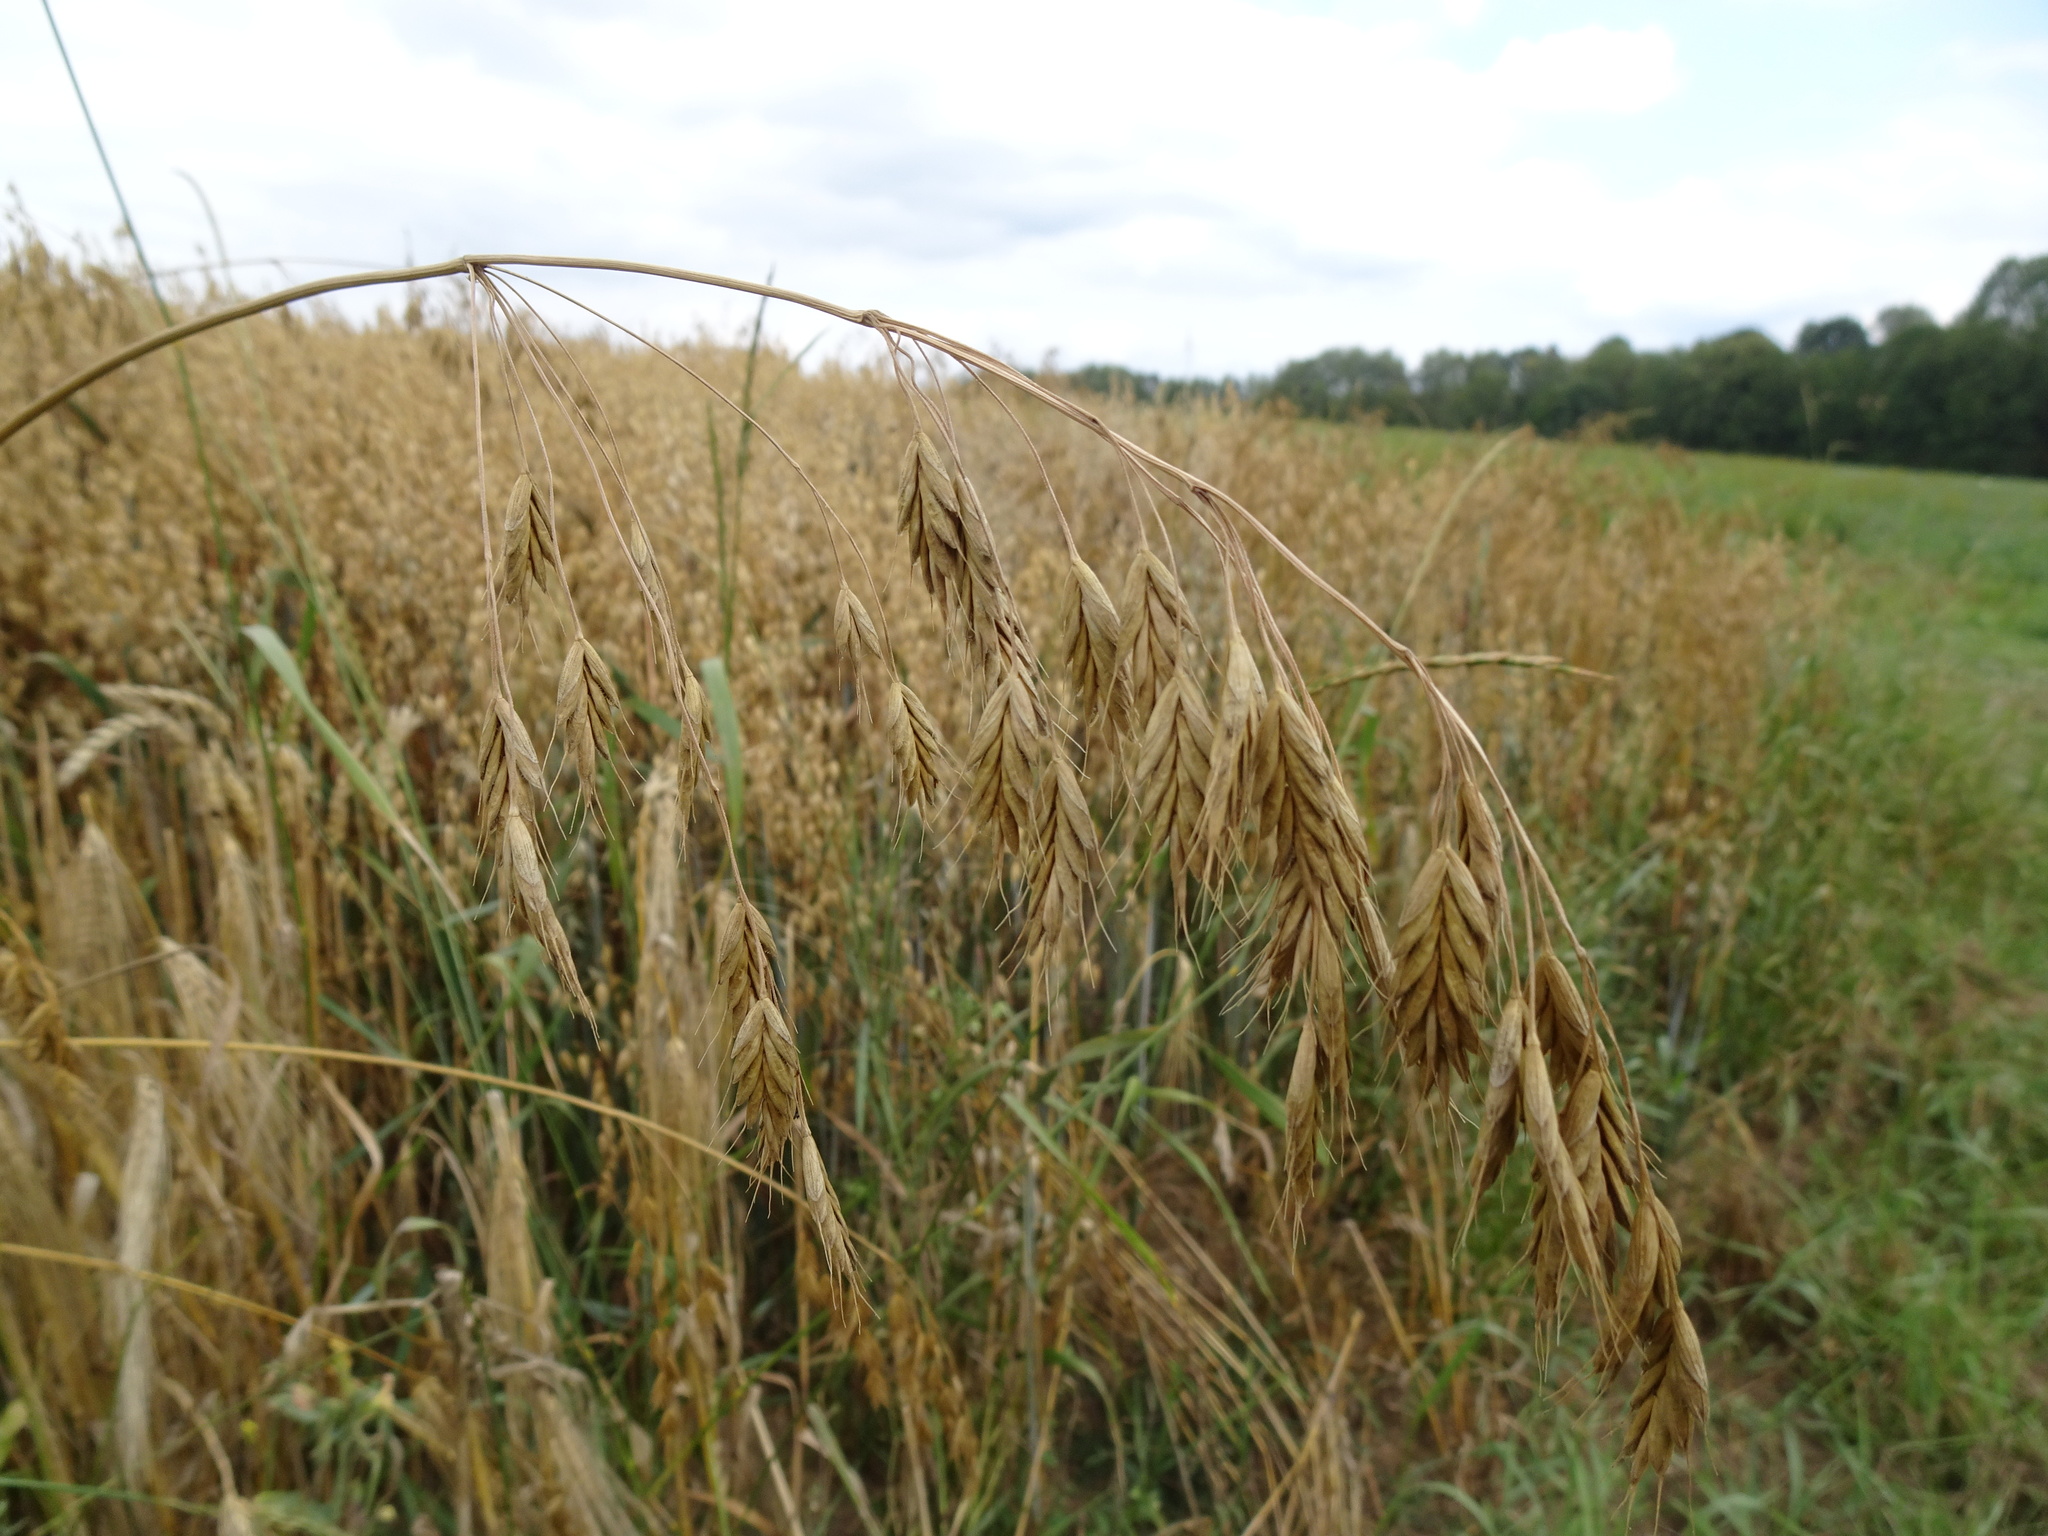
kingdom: Plantae
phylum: Tracheophyta
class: Liliopsida
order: Poales
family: Poaceae
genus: Bromus
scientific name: Bromus secalinus
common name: Rye brome
